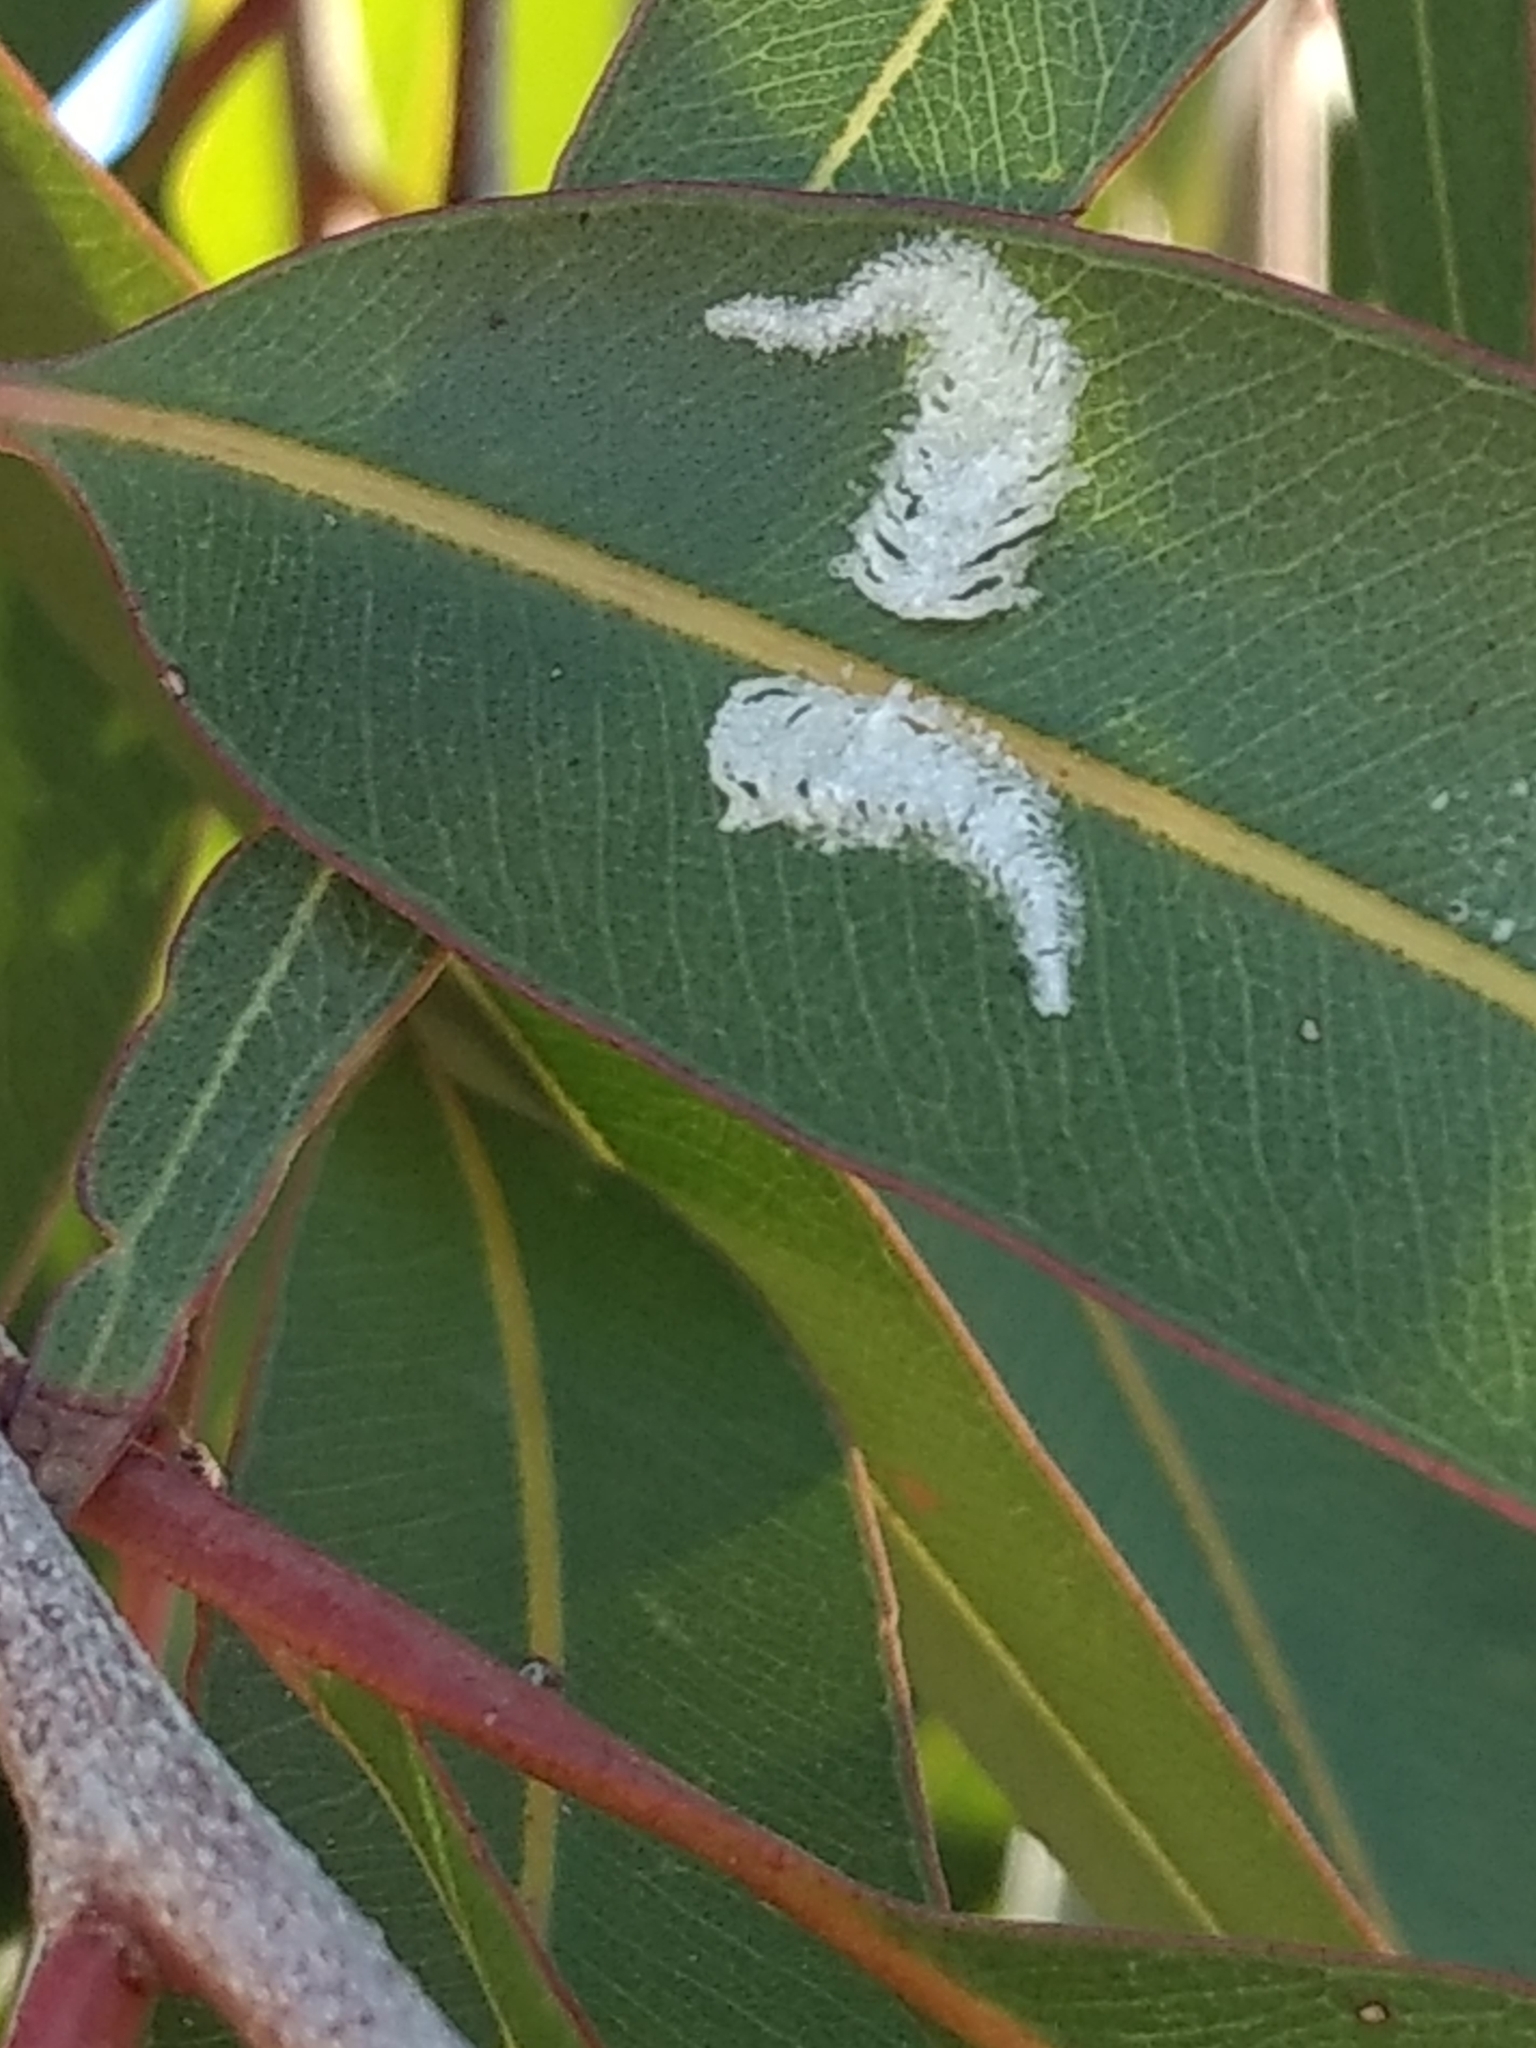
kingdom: Animalia
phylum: Arthropoda
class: Insecta
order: Hemiptera
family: Aphalaridae
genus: Eucalyptolyma
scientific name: Eucalyptolyma maideni
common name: Spotted gum lerp psyllid
